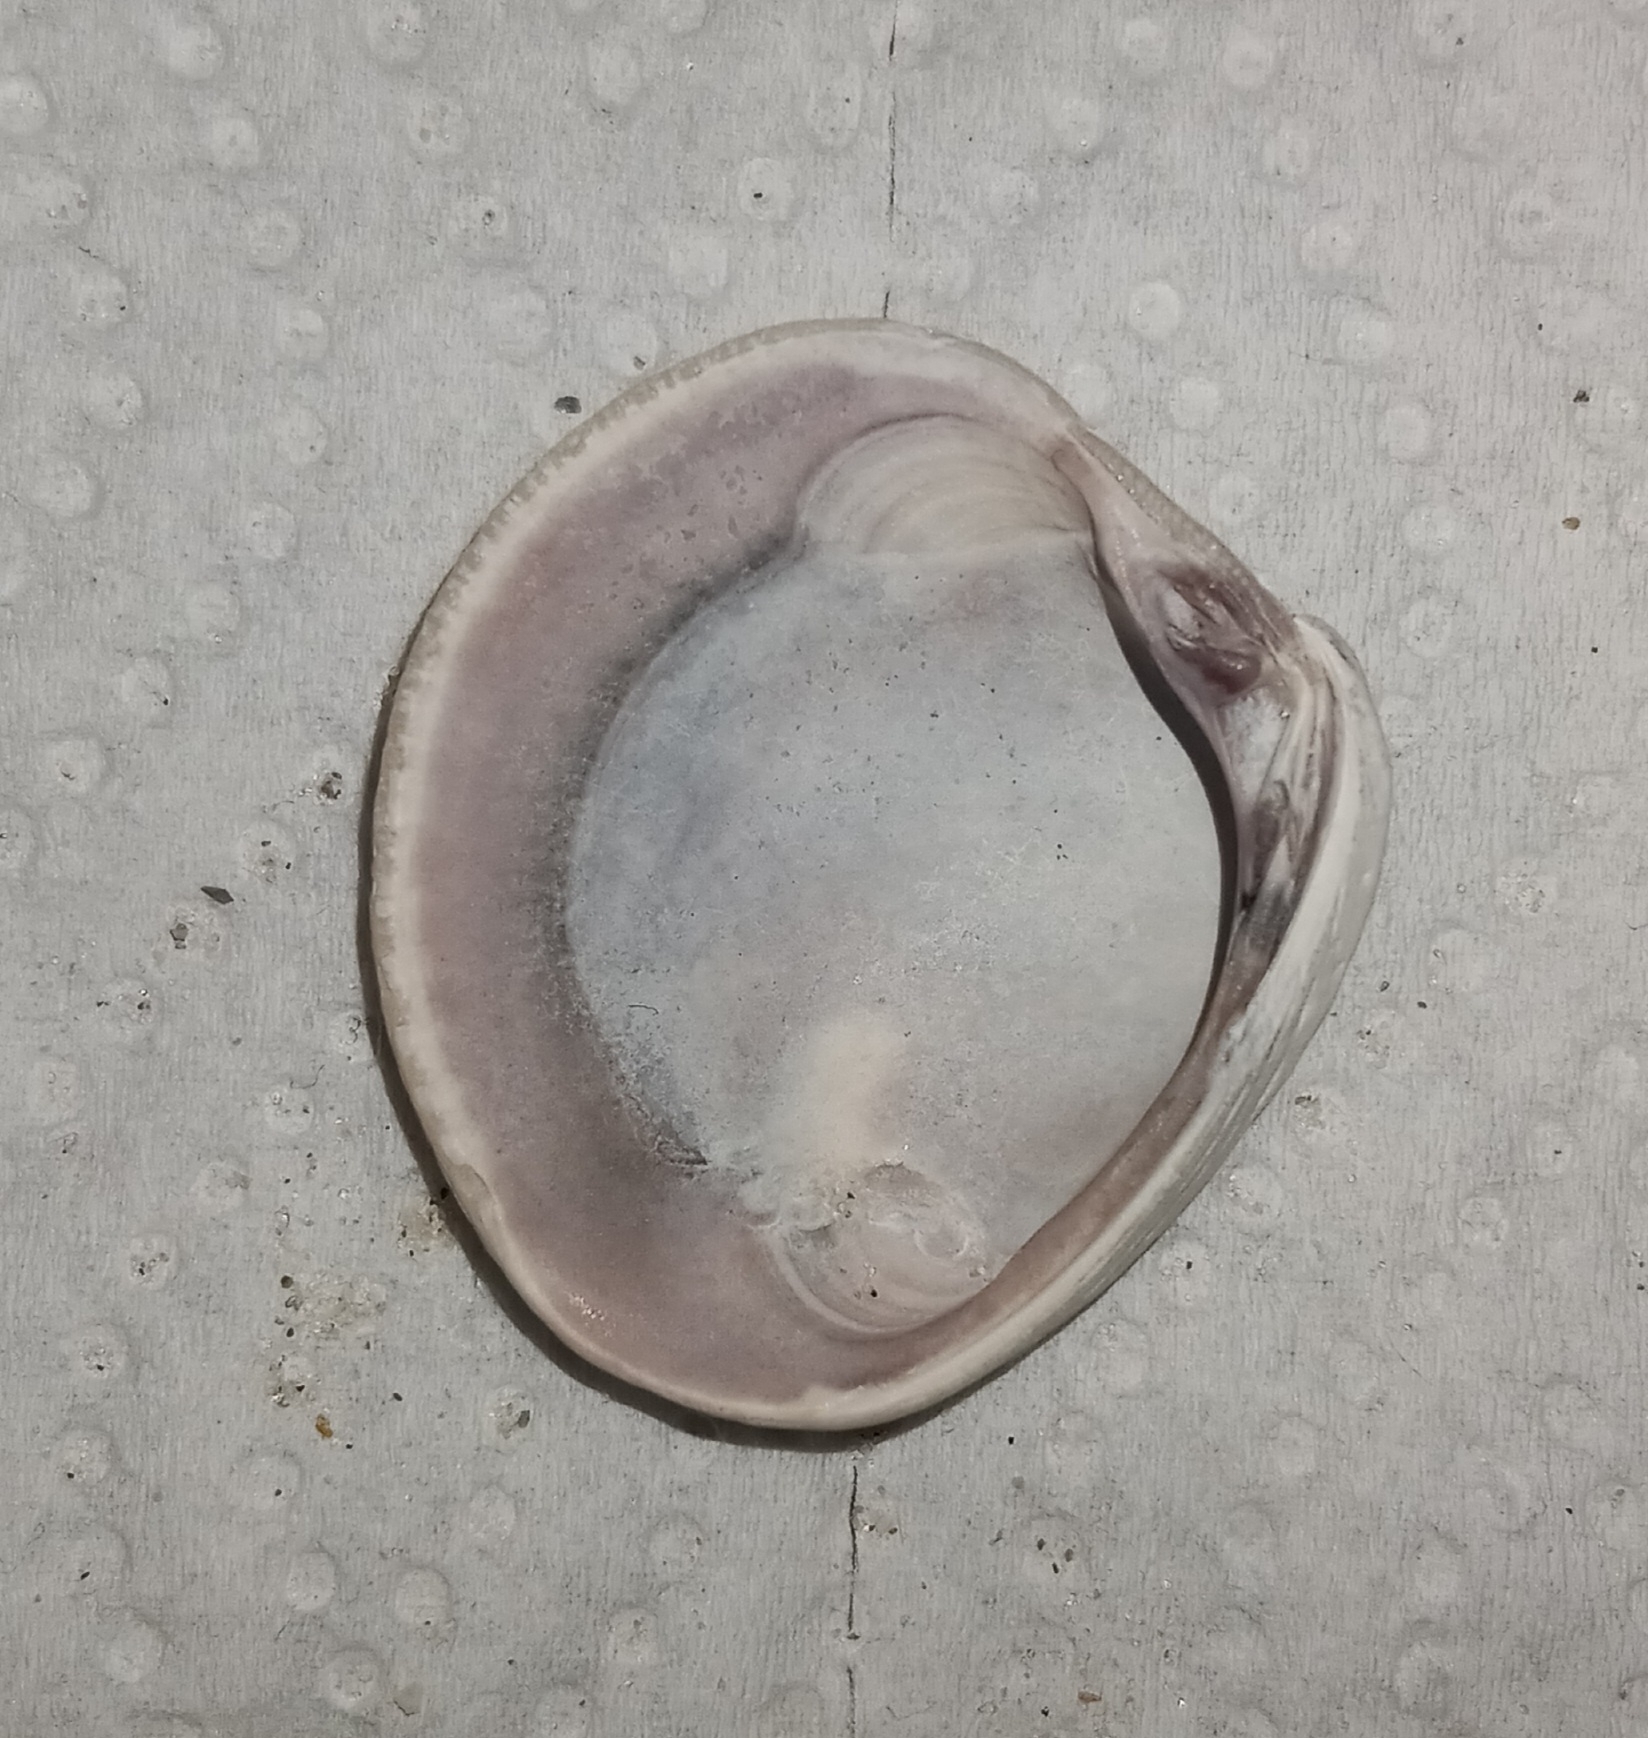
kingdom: Animalia
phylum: Mollusca
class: Bivalvia
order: Venerida
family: Veneridae
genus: Chione
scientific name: Chione elevata
